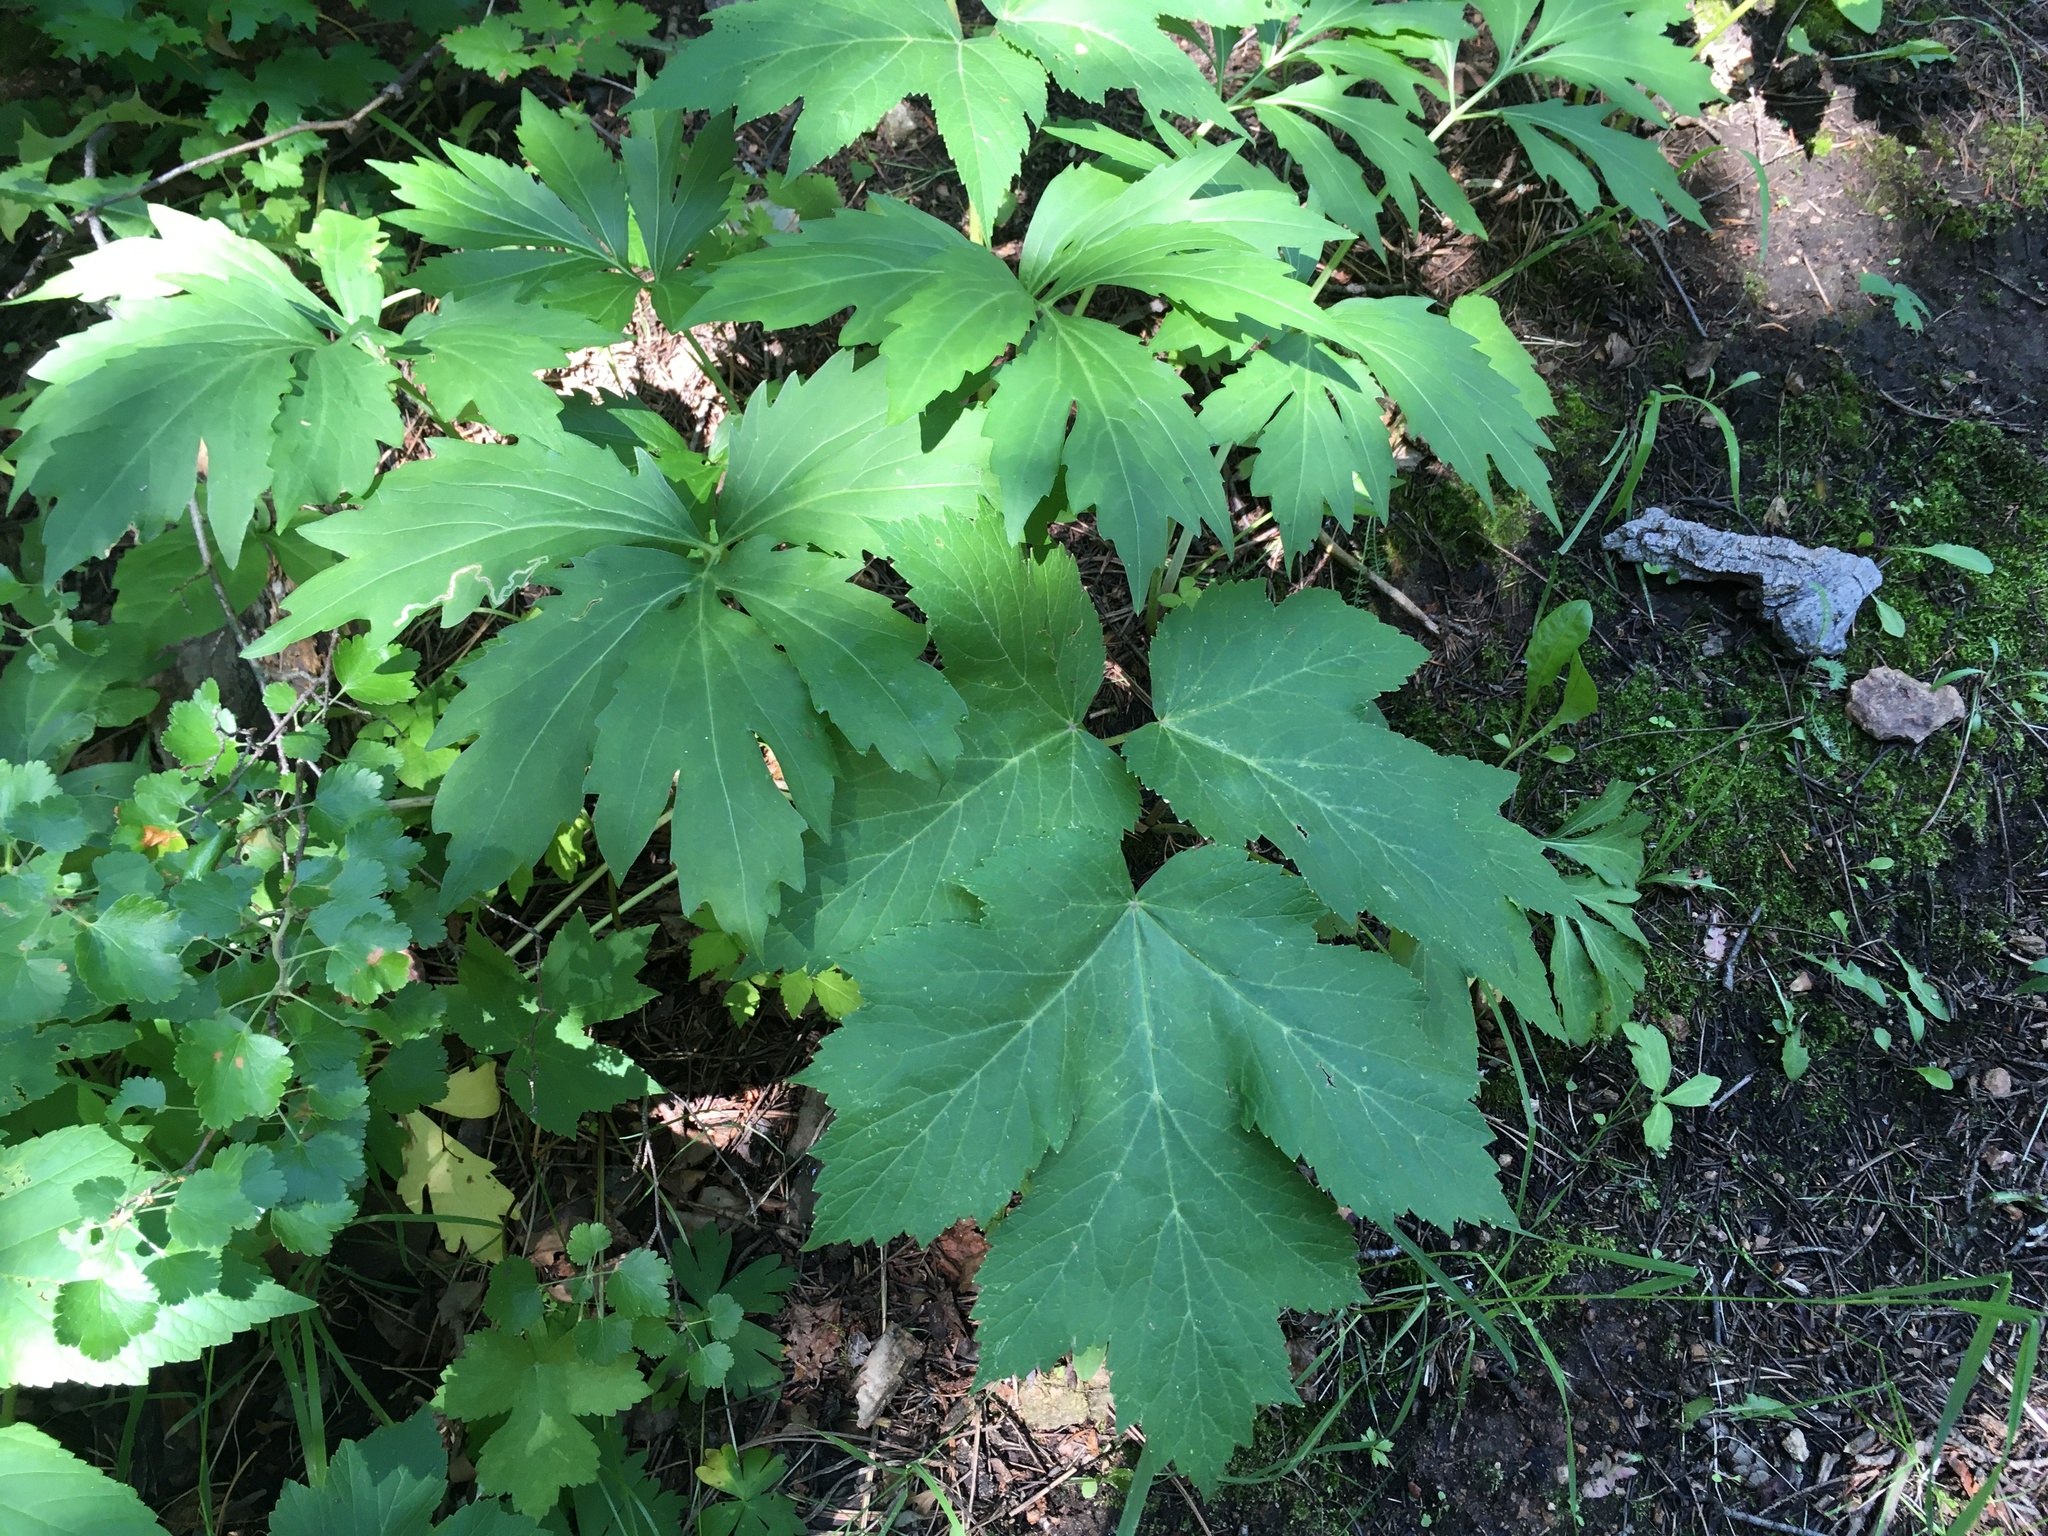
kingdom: Plantae
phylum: Tracheophyta
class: Magnoliopsida
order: Apiales
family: Apiaceae
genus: Heracleum
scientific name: Heracleum maximum
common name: American cow parsnip
